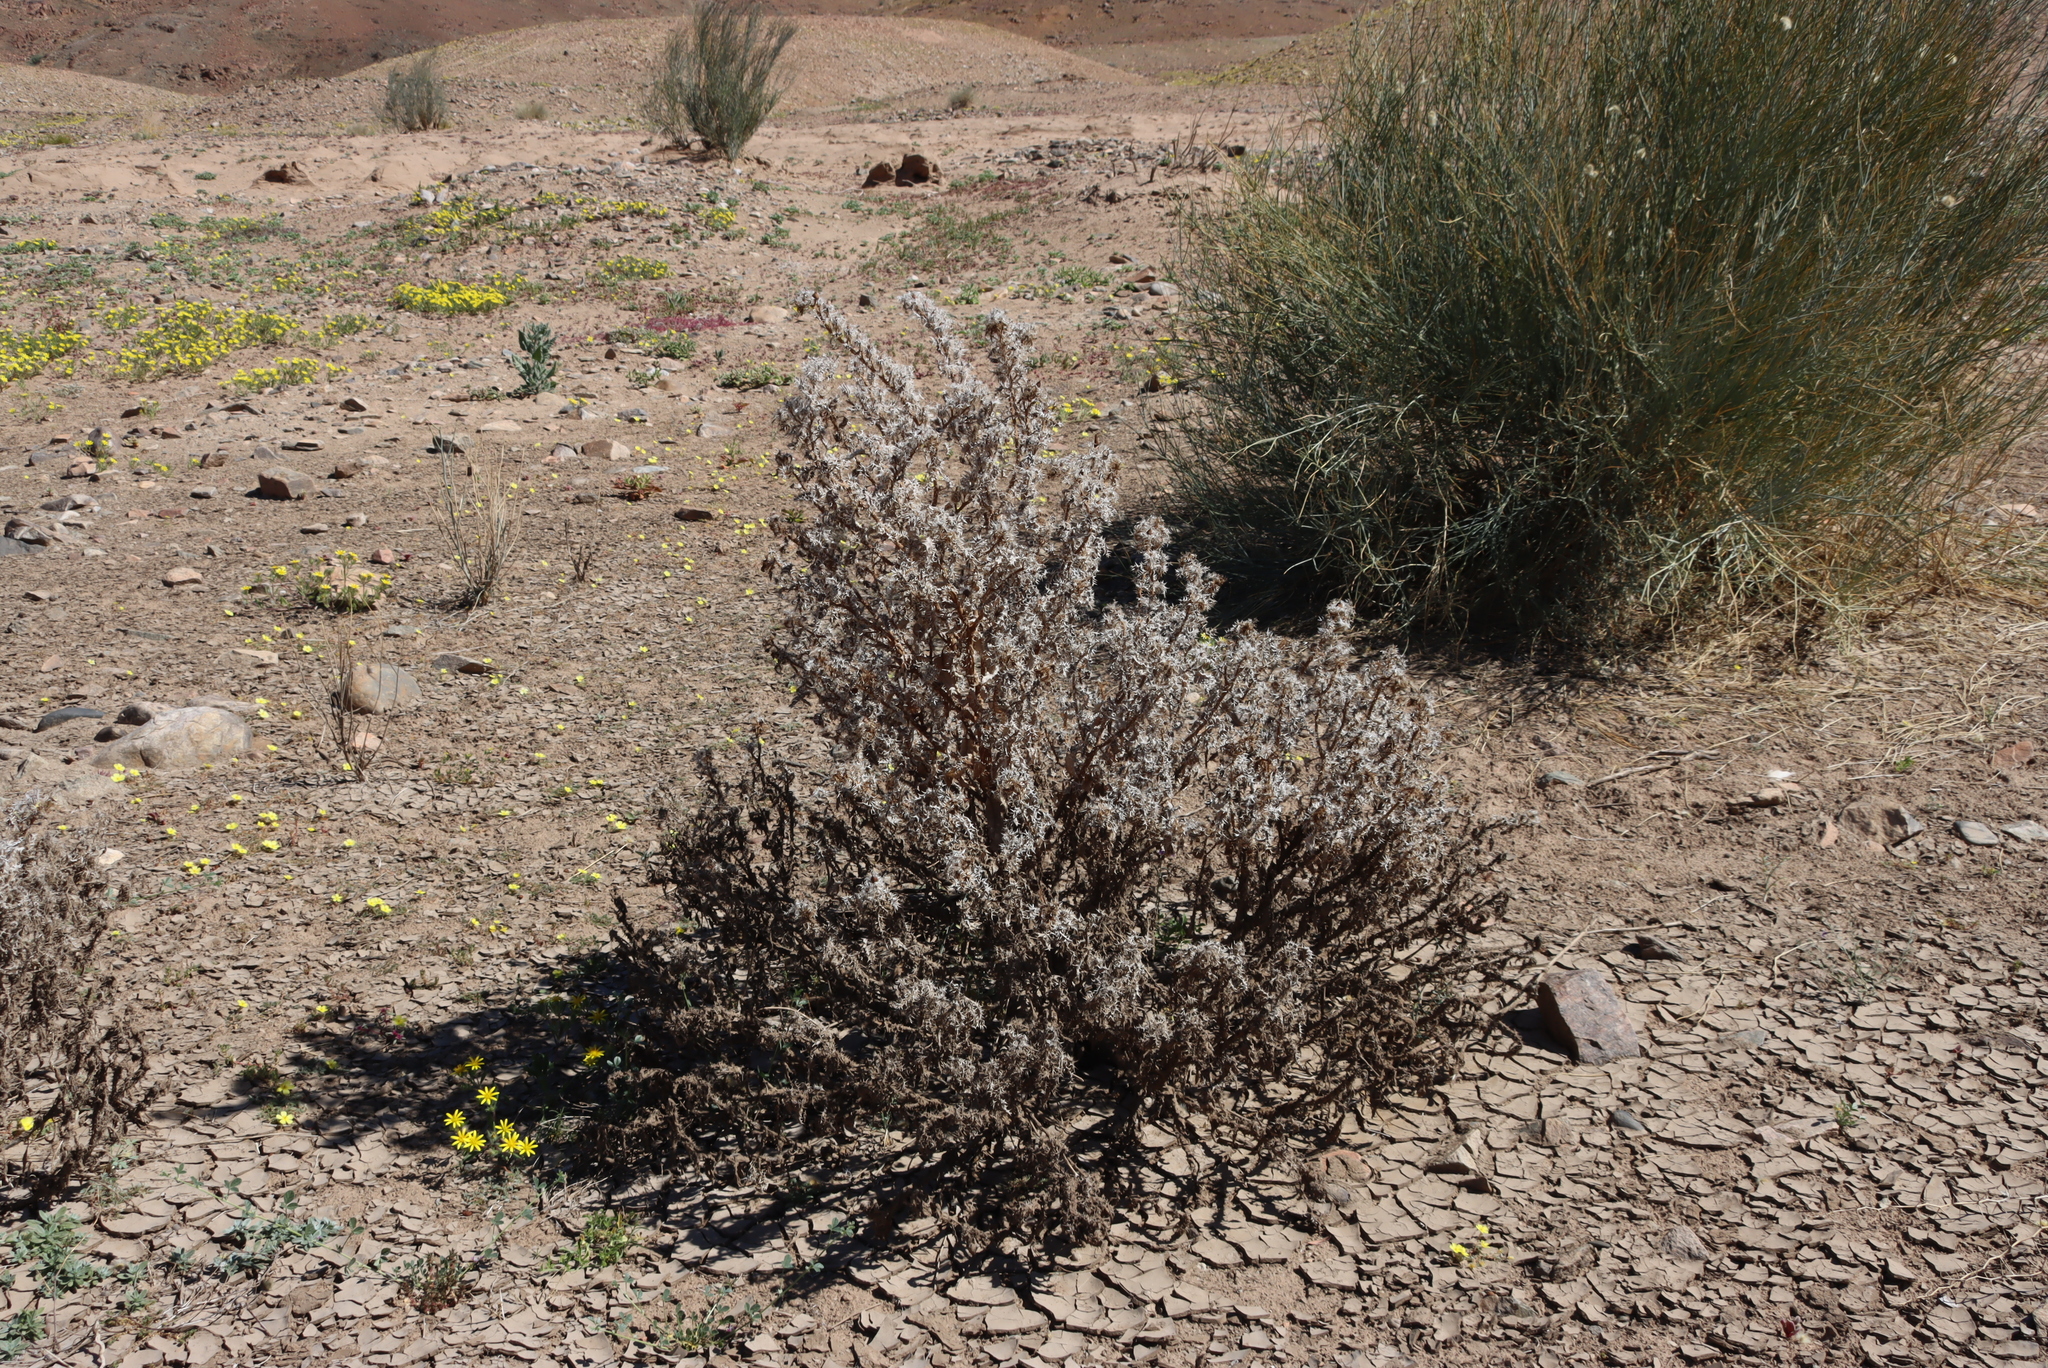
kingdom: Plantae
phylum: Tracheophyta
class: Magnoliopsida
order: Zygophyllales
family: Zygophyllaceae
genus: Sisyndite
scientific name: Sisyndite spartea
